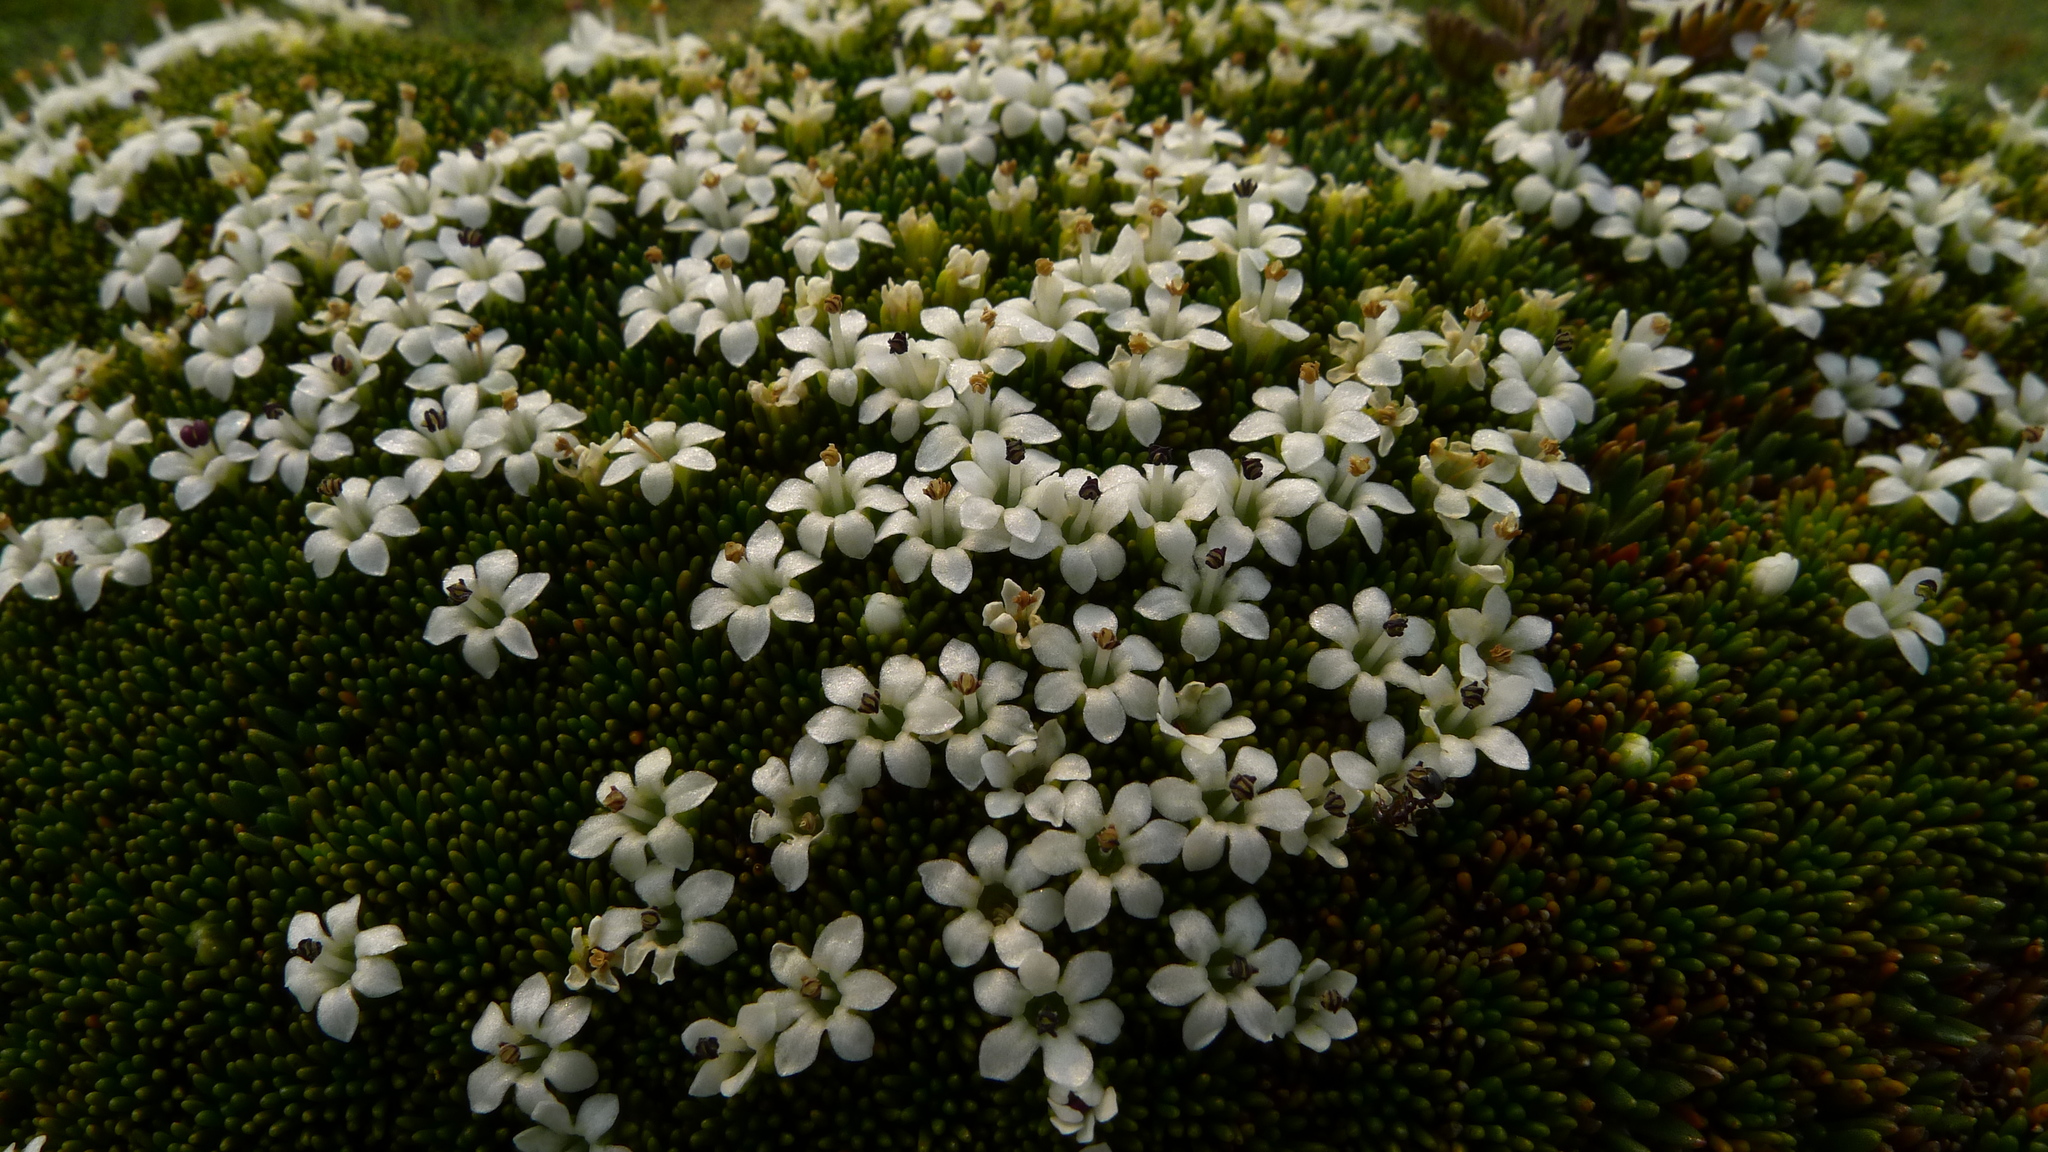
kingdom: Plantae
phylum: Tracheophyta
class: Magnoliopsida
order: Asterales
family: Stylidiaceae
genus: Phyllachne
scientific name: Phyllachne colensoi
